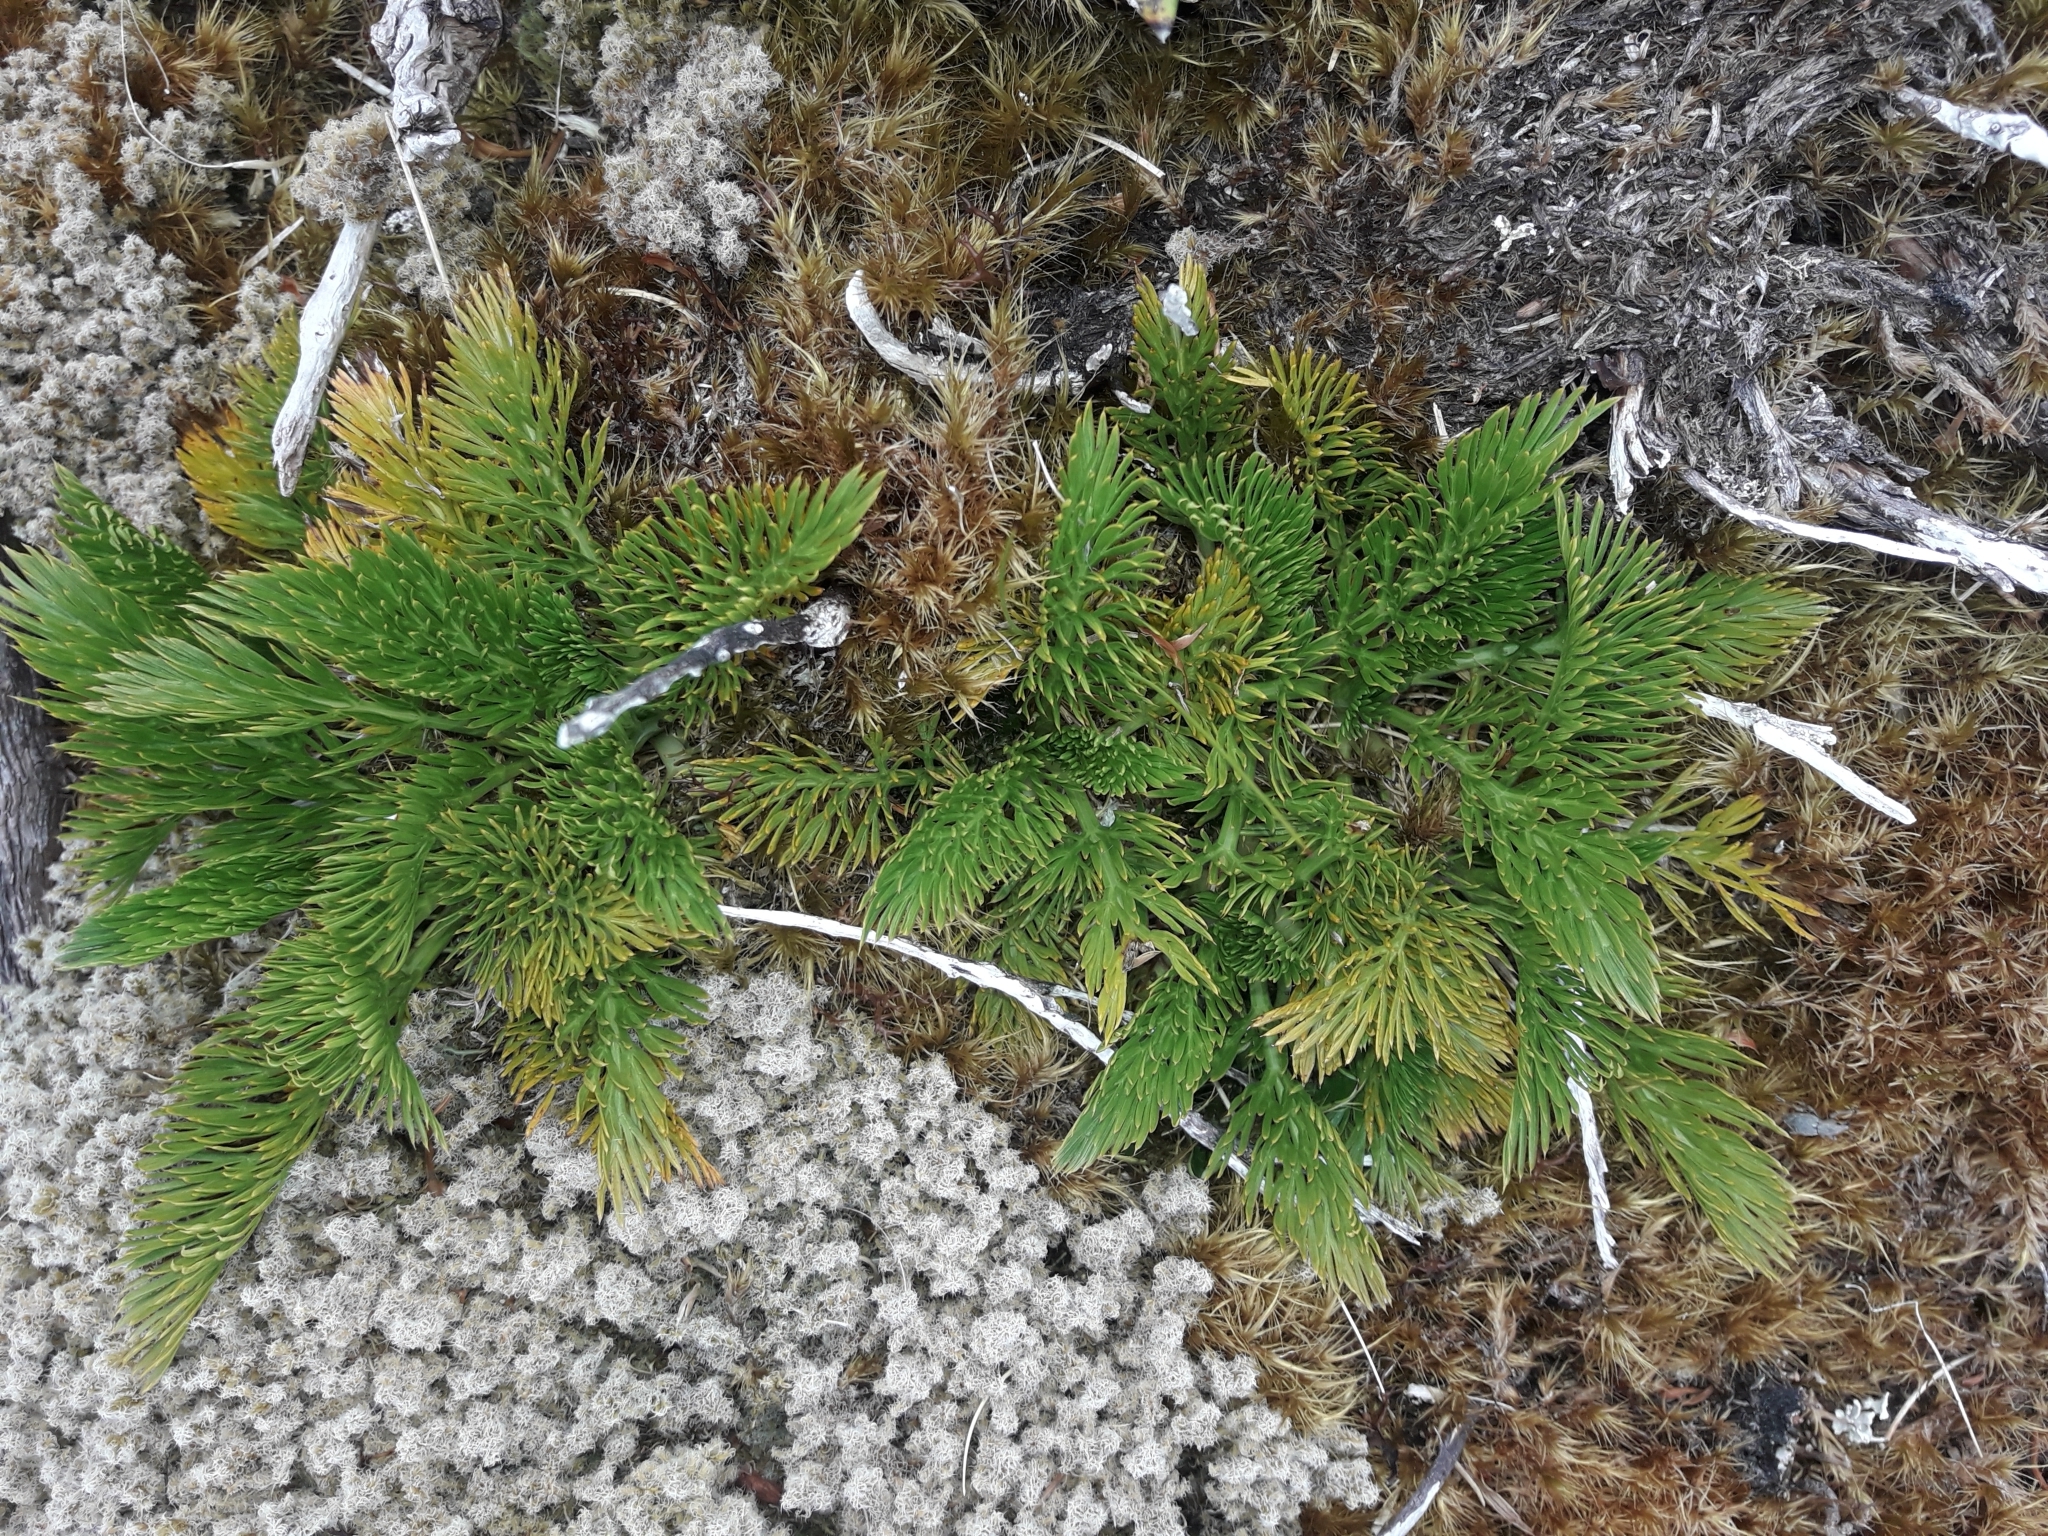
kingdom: Plantae
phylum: Tracheophyta
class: Magnoliopsida
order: Apiales
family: Apiaceae
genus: Aciphylla
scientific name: Aciphylla dissecta
